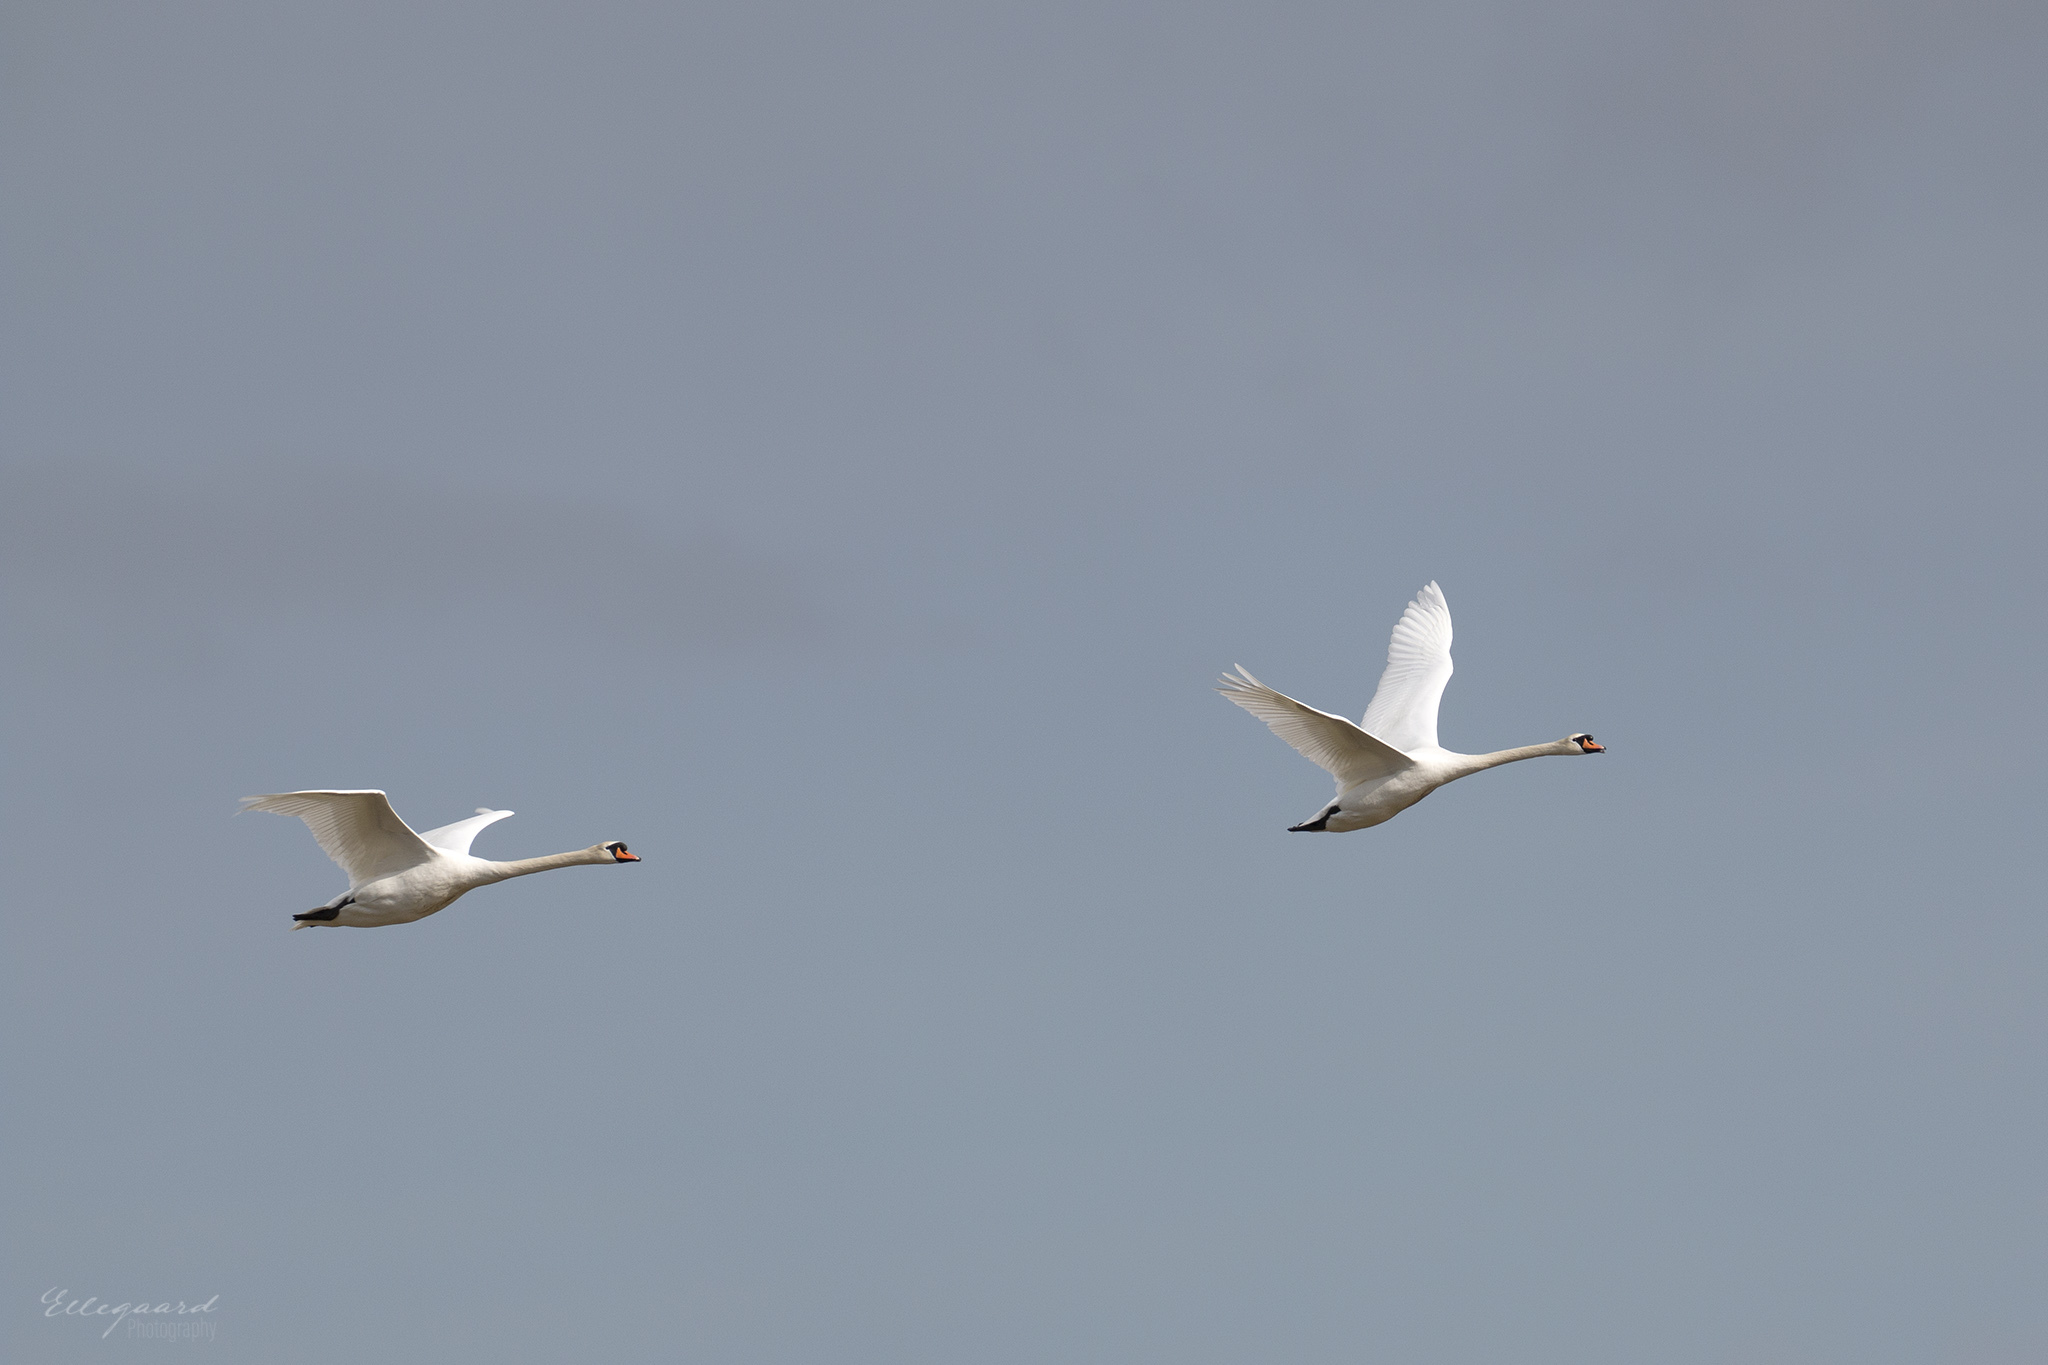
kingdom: Animalia
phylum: Chordata
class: Aves
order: Anseriformes
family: Anatidae
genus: Cygnus
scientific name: Cygnus olor
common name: Mute swan
